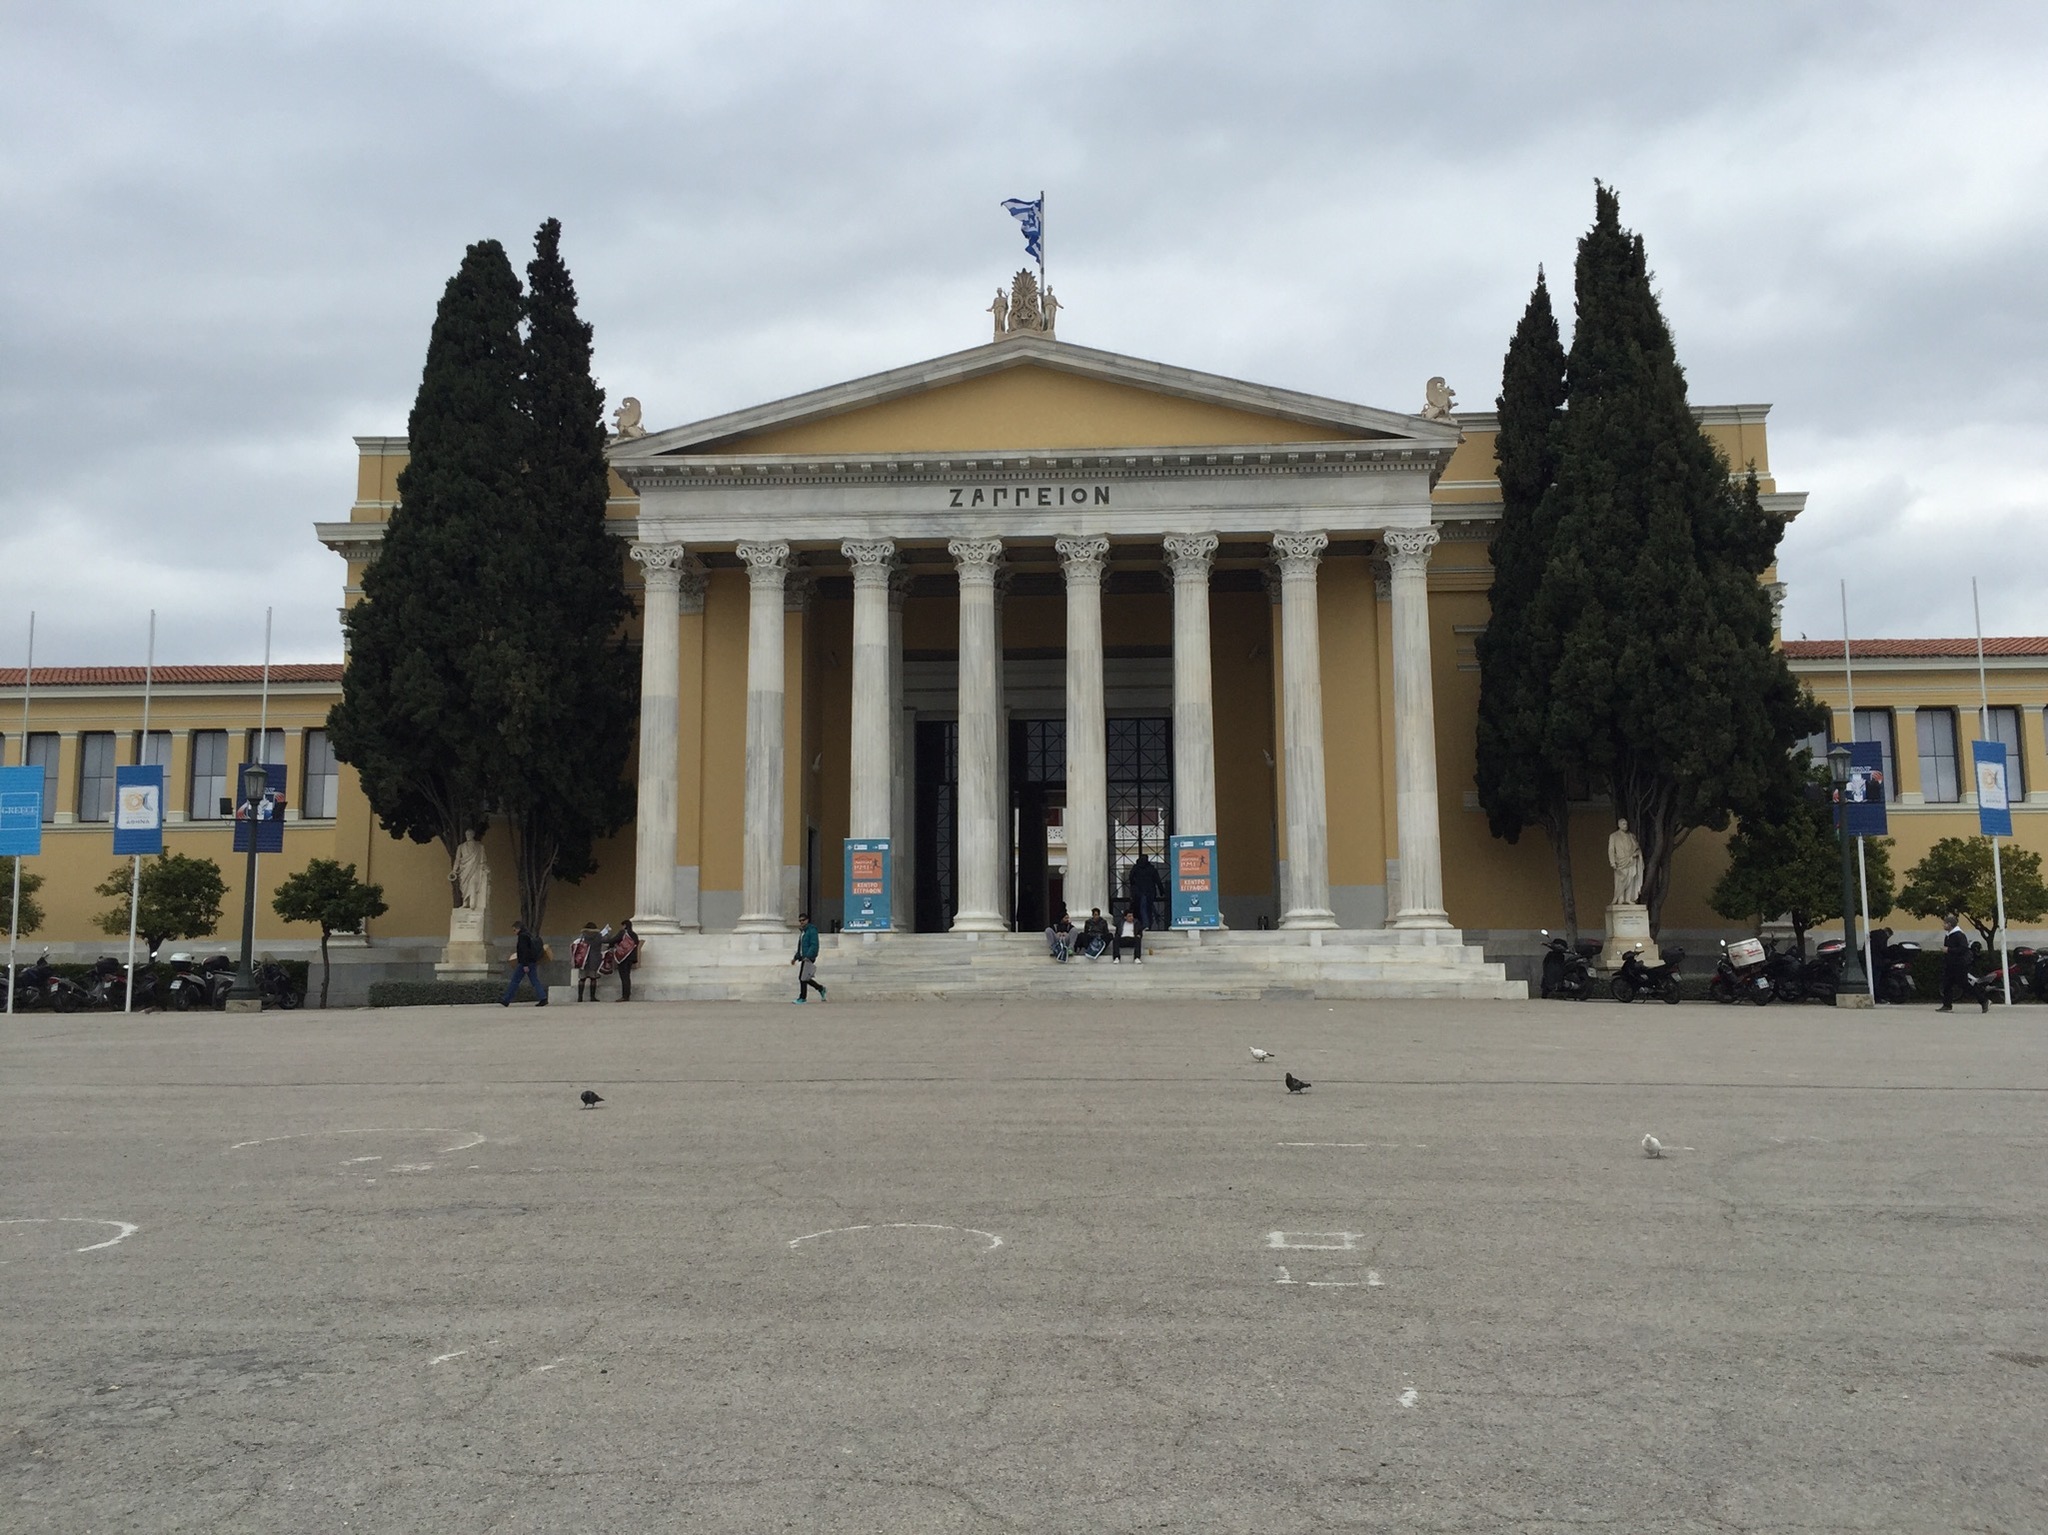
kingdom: Animalia
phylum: Chordata
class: Aves
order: Columbiformes
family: Columbidae
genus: Columba
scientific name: Columba livia
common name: Rock pigeon
